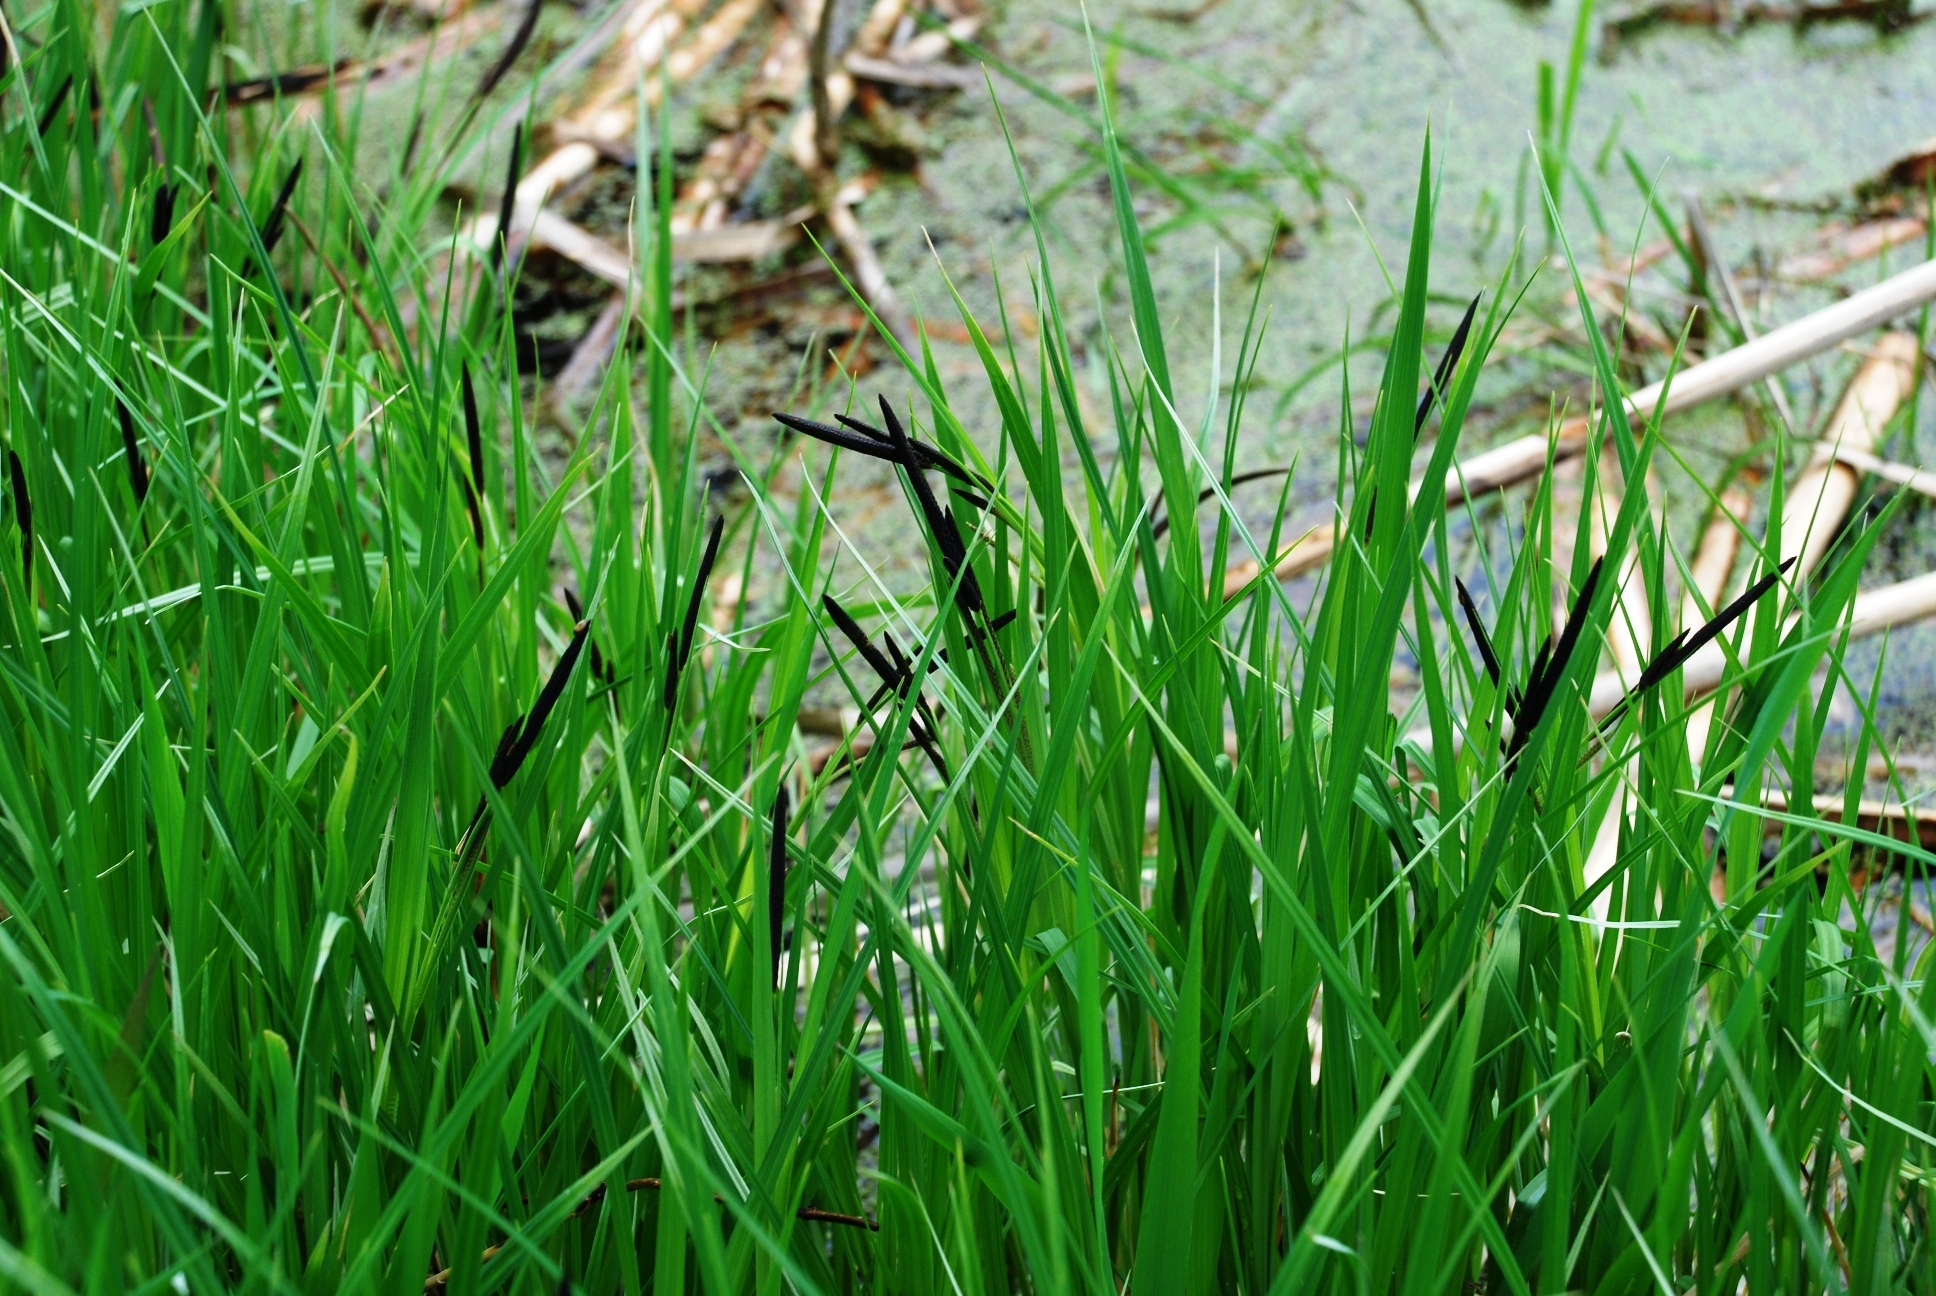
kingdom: Plantae
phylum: Tracheophyta
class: Liliopsida
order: Poales
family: Cyperaceae
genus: Carex
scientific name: Carex acuta
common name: Slender tufted-sedge
